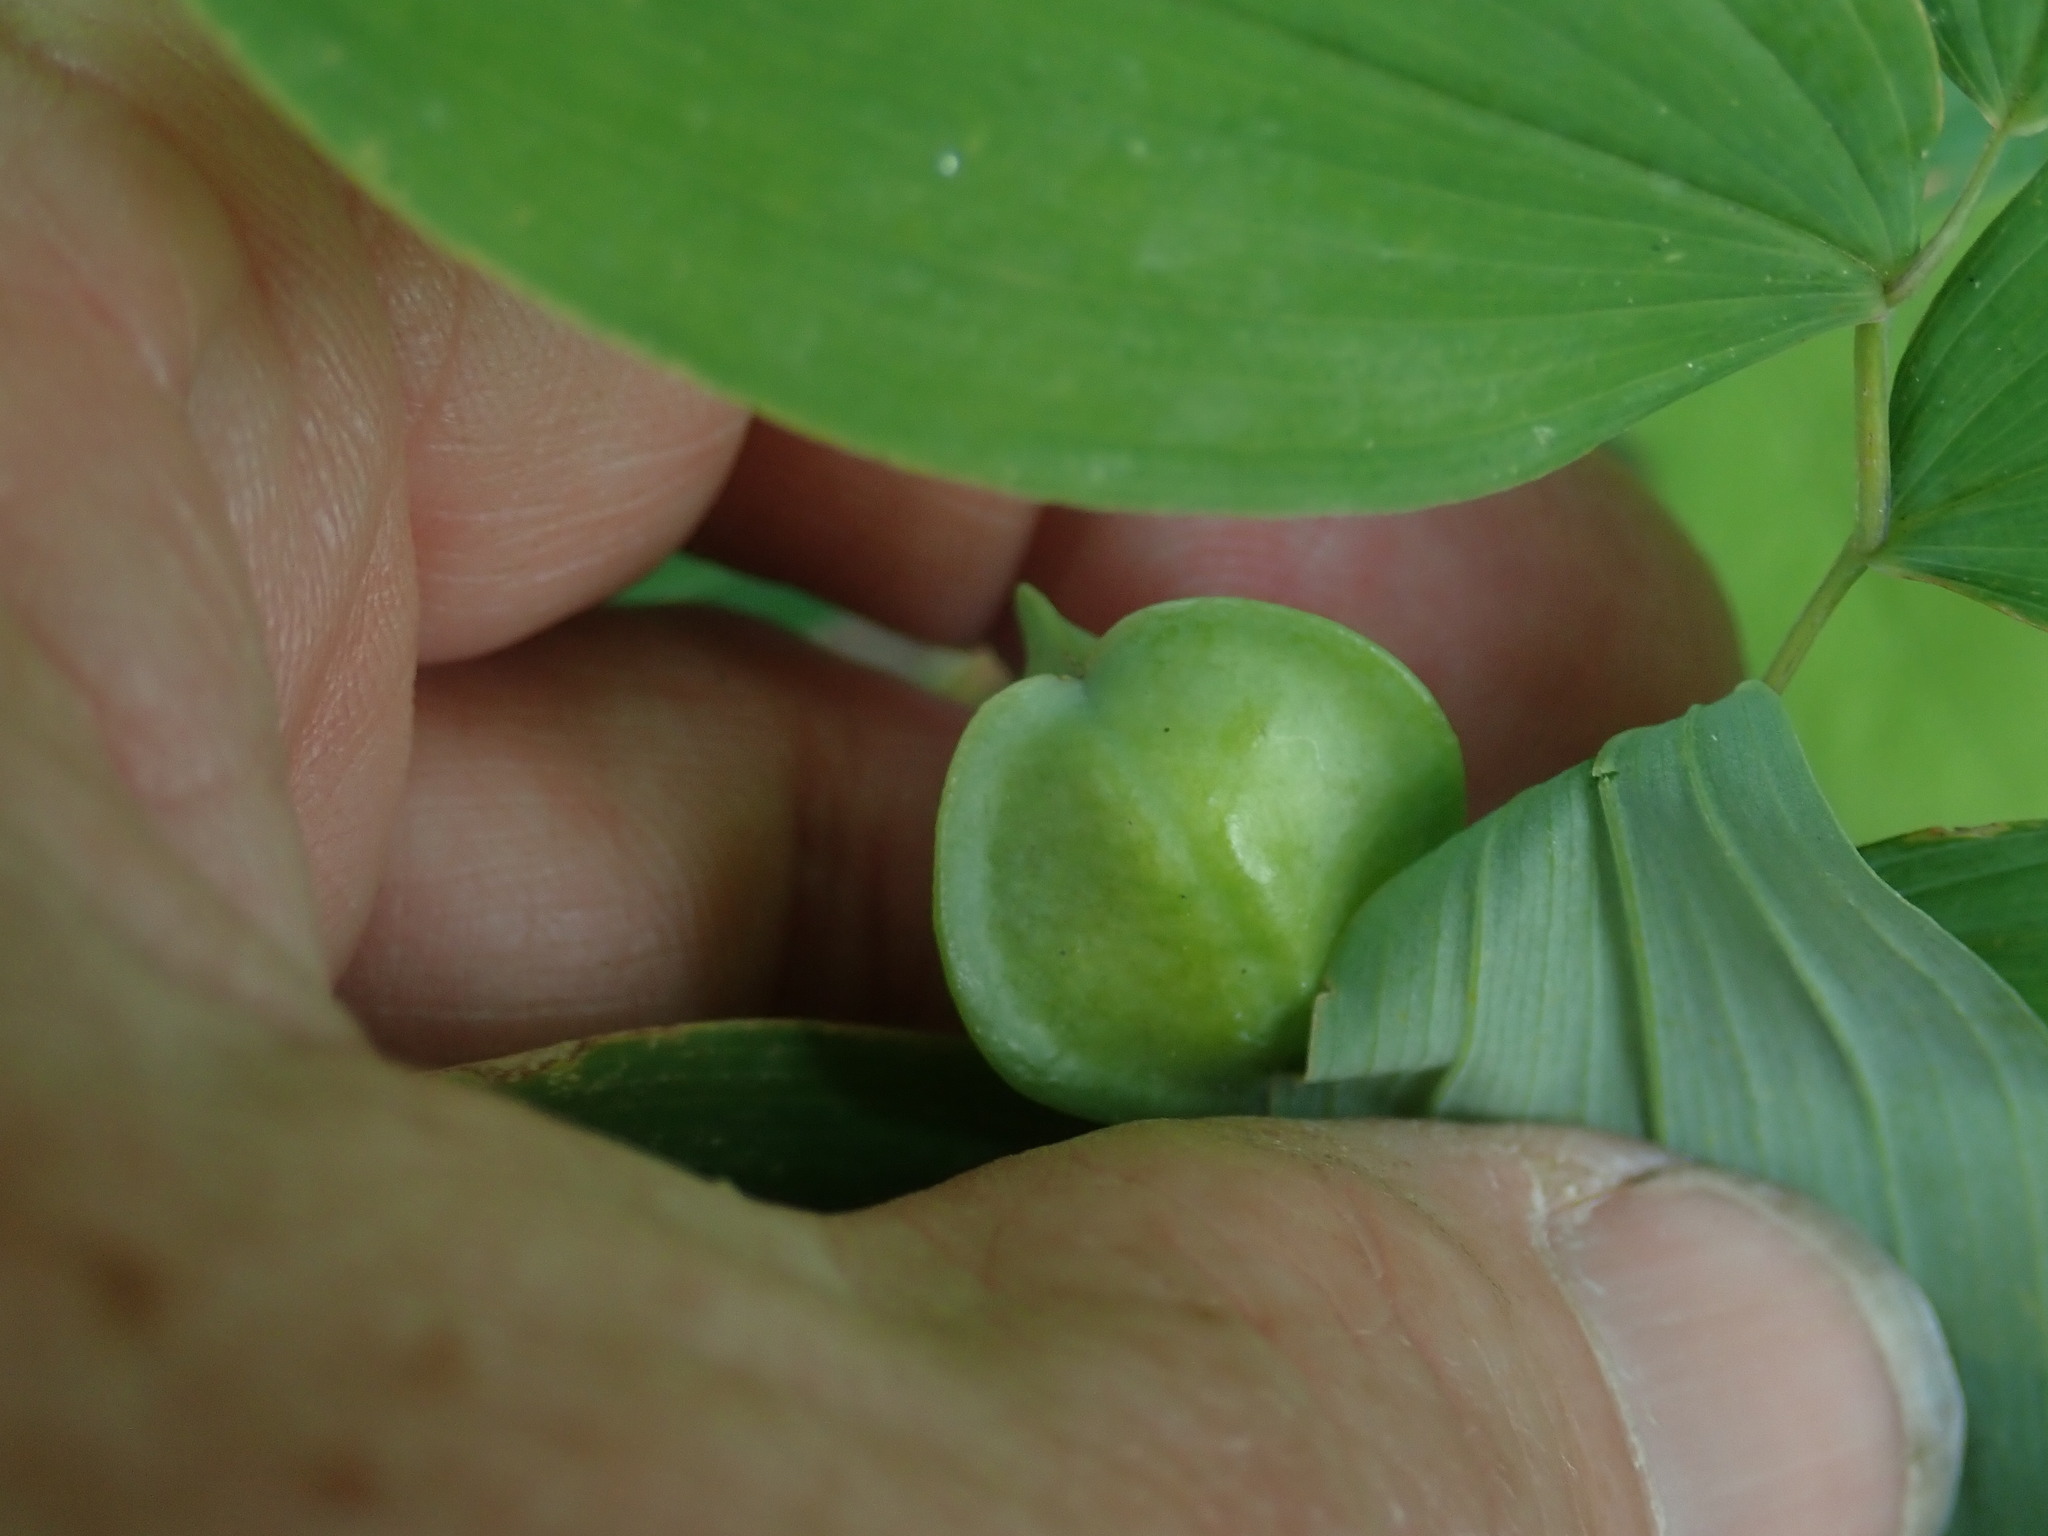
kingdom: Plantae
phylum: Tracheophyta
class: Liliopsida
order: Liliales
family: Colchicaceae
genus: Uvularia
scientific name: Uvularia sessilifolia
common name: Straw-lily
